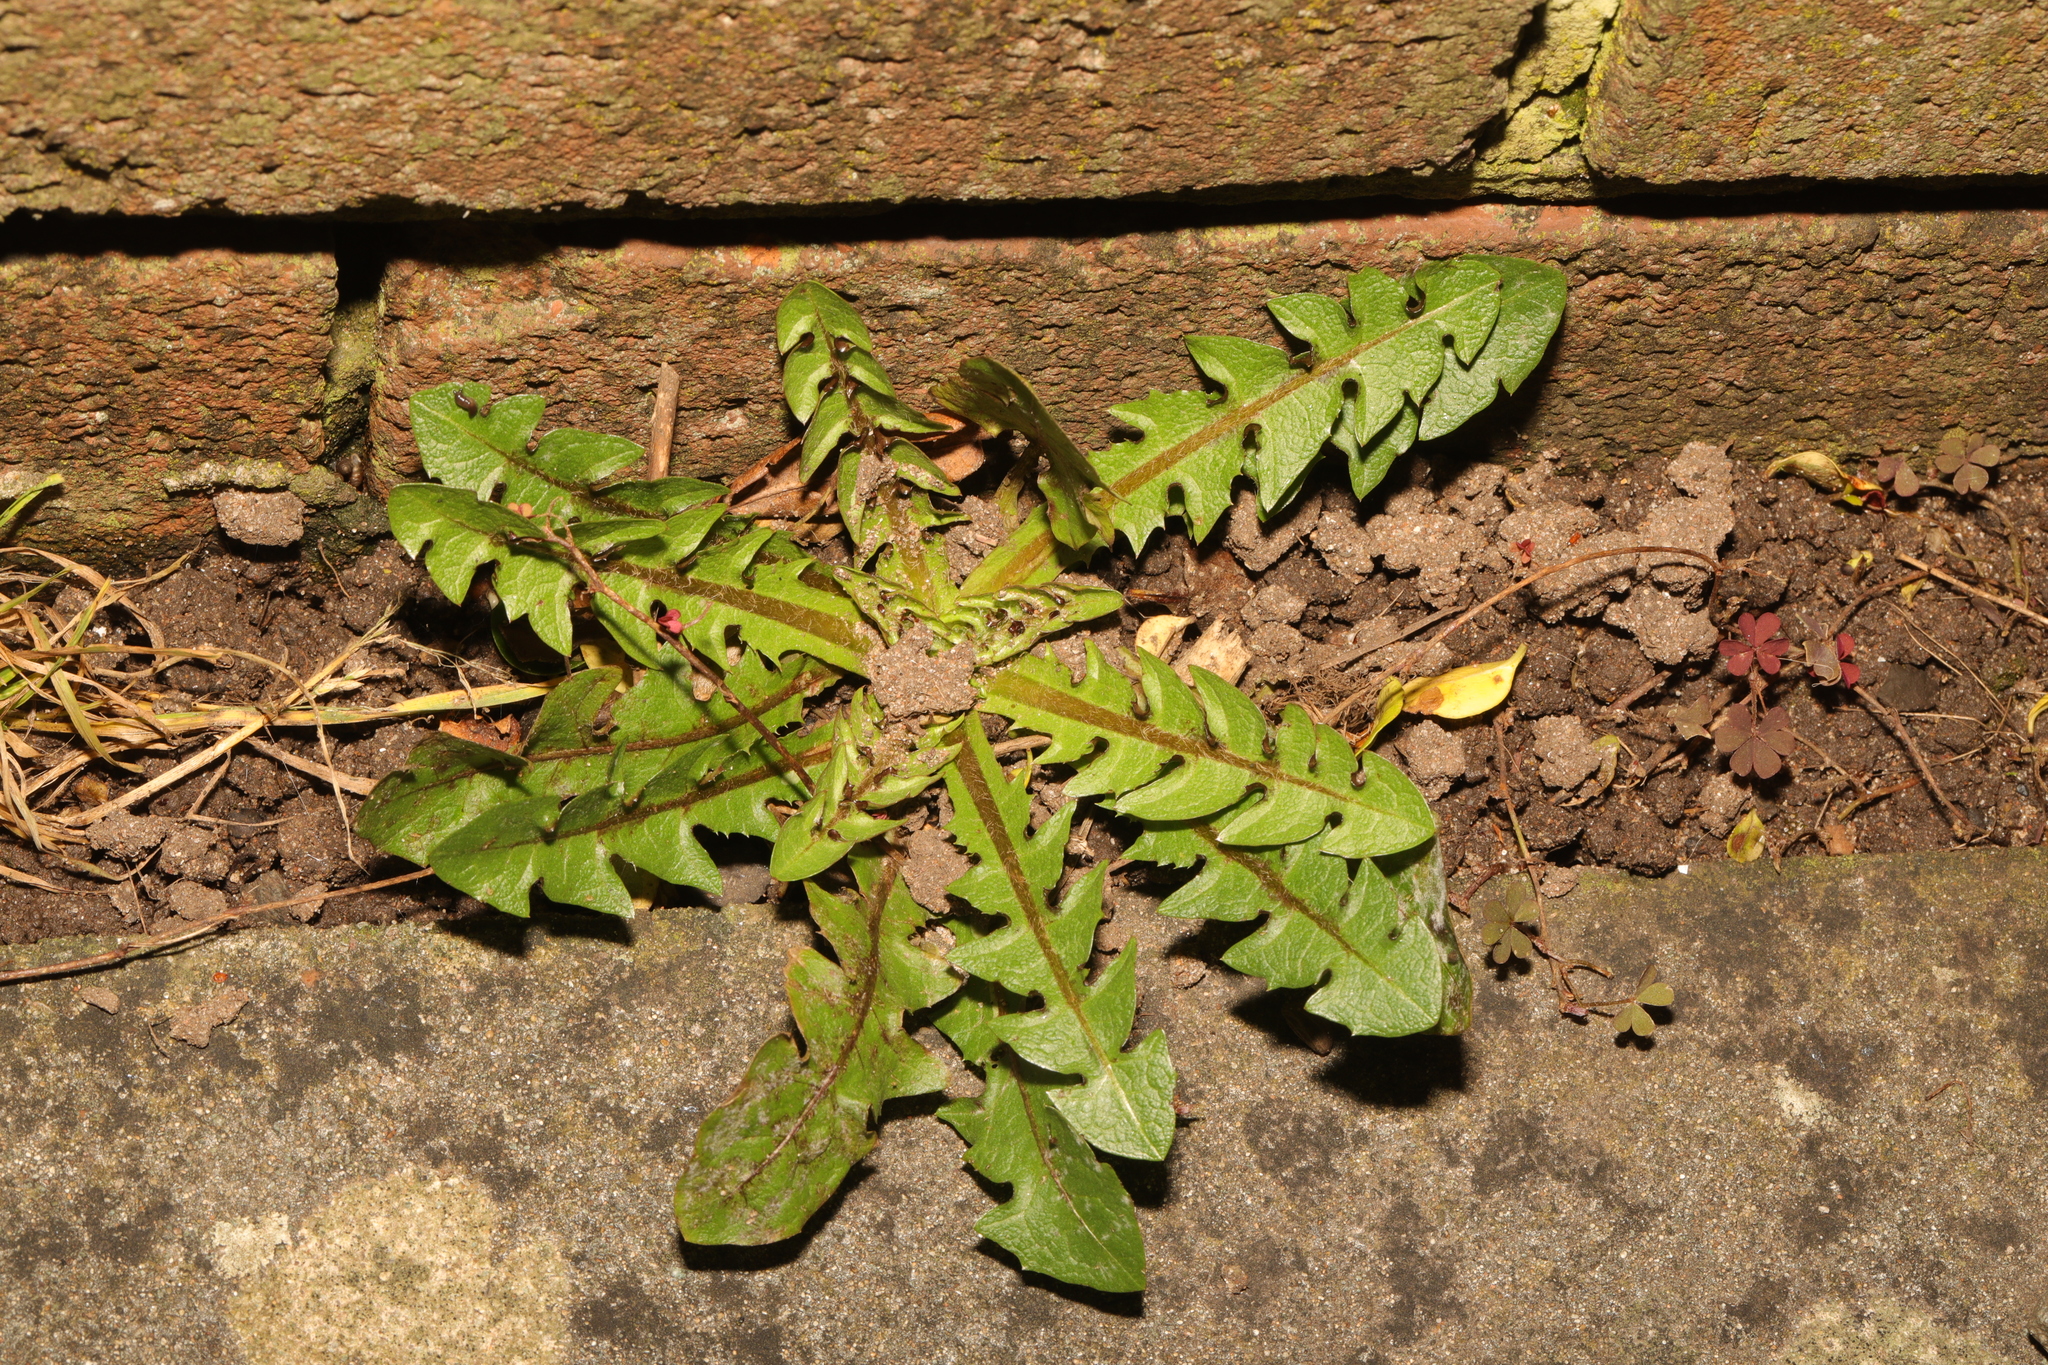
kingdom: Plantae
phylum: Tracheophyta
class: Magnoliopsida
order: Asterales
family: Asteraceae
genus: Taraxacum
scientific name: Taraxacum
